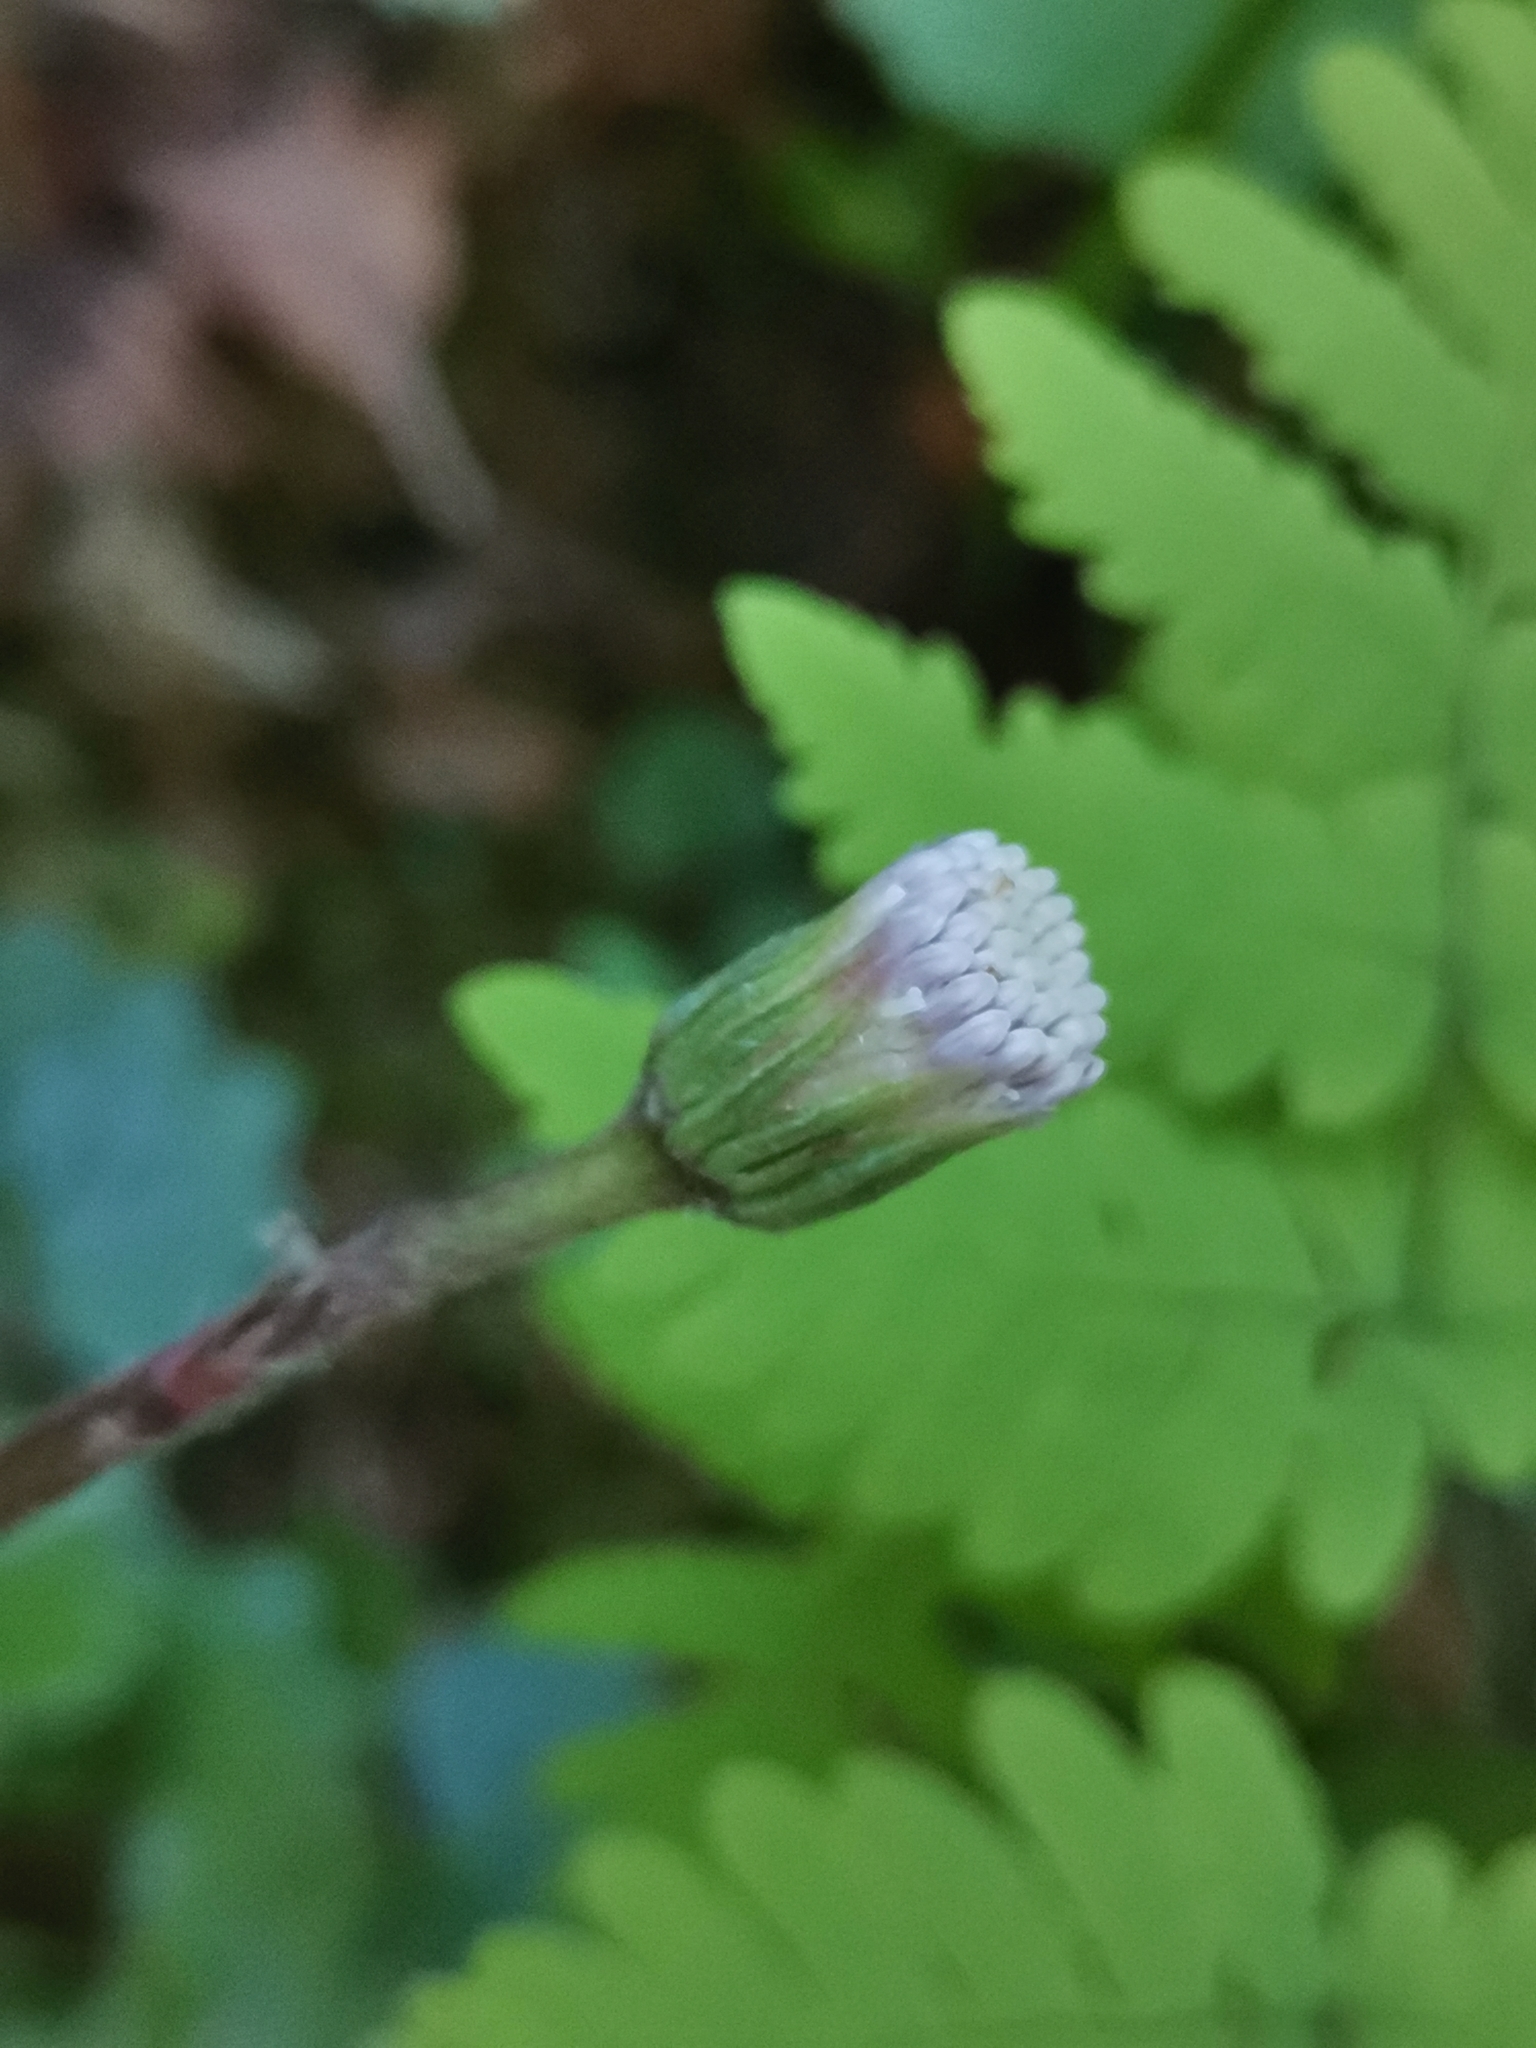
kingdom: Plantae
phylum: Tracheophyta
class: Magnoliopsida
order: Asterales
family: Asteraceae
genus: Homogyne
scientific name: Homogyne sylvestris
